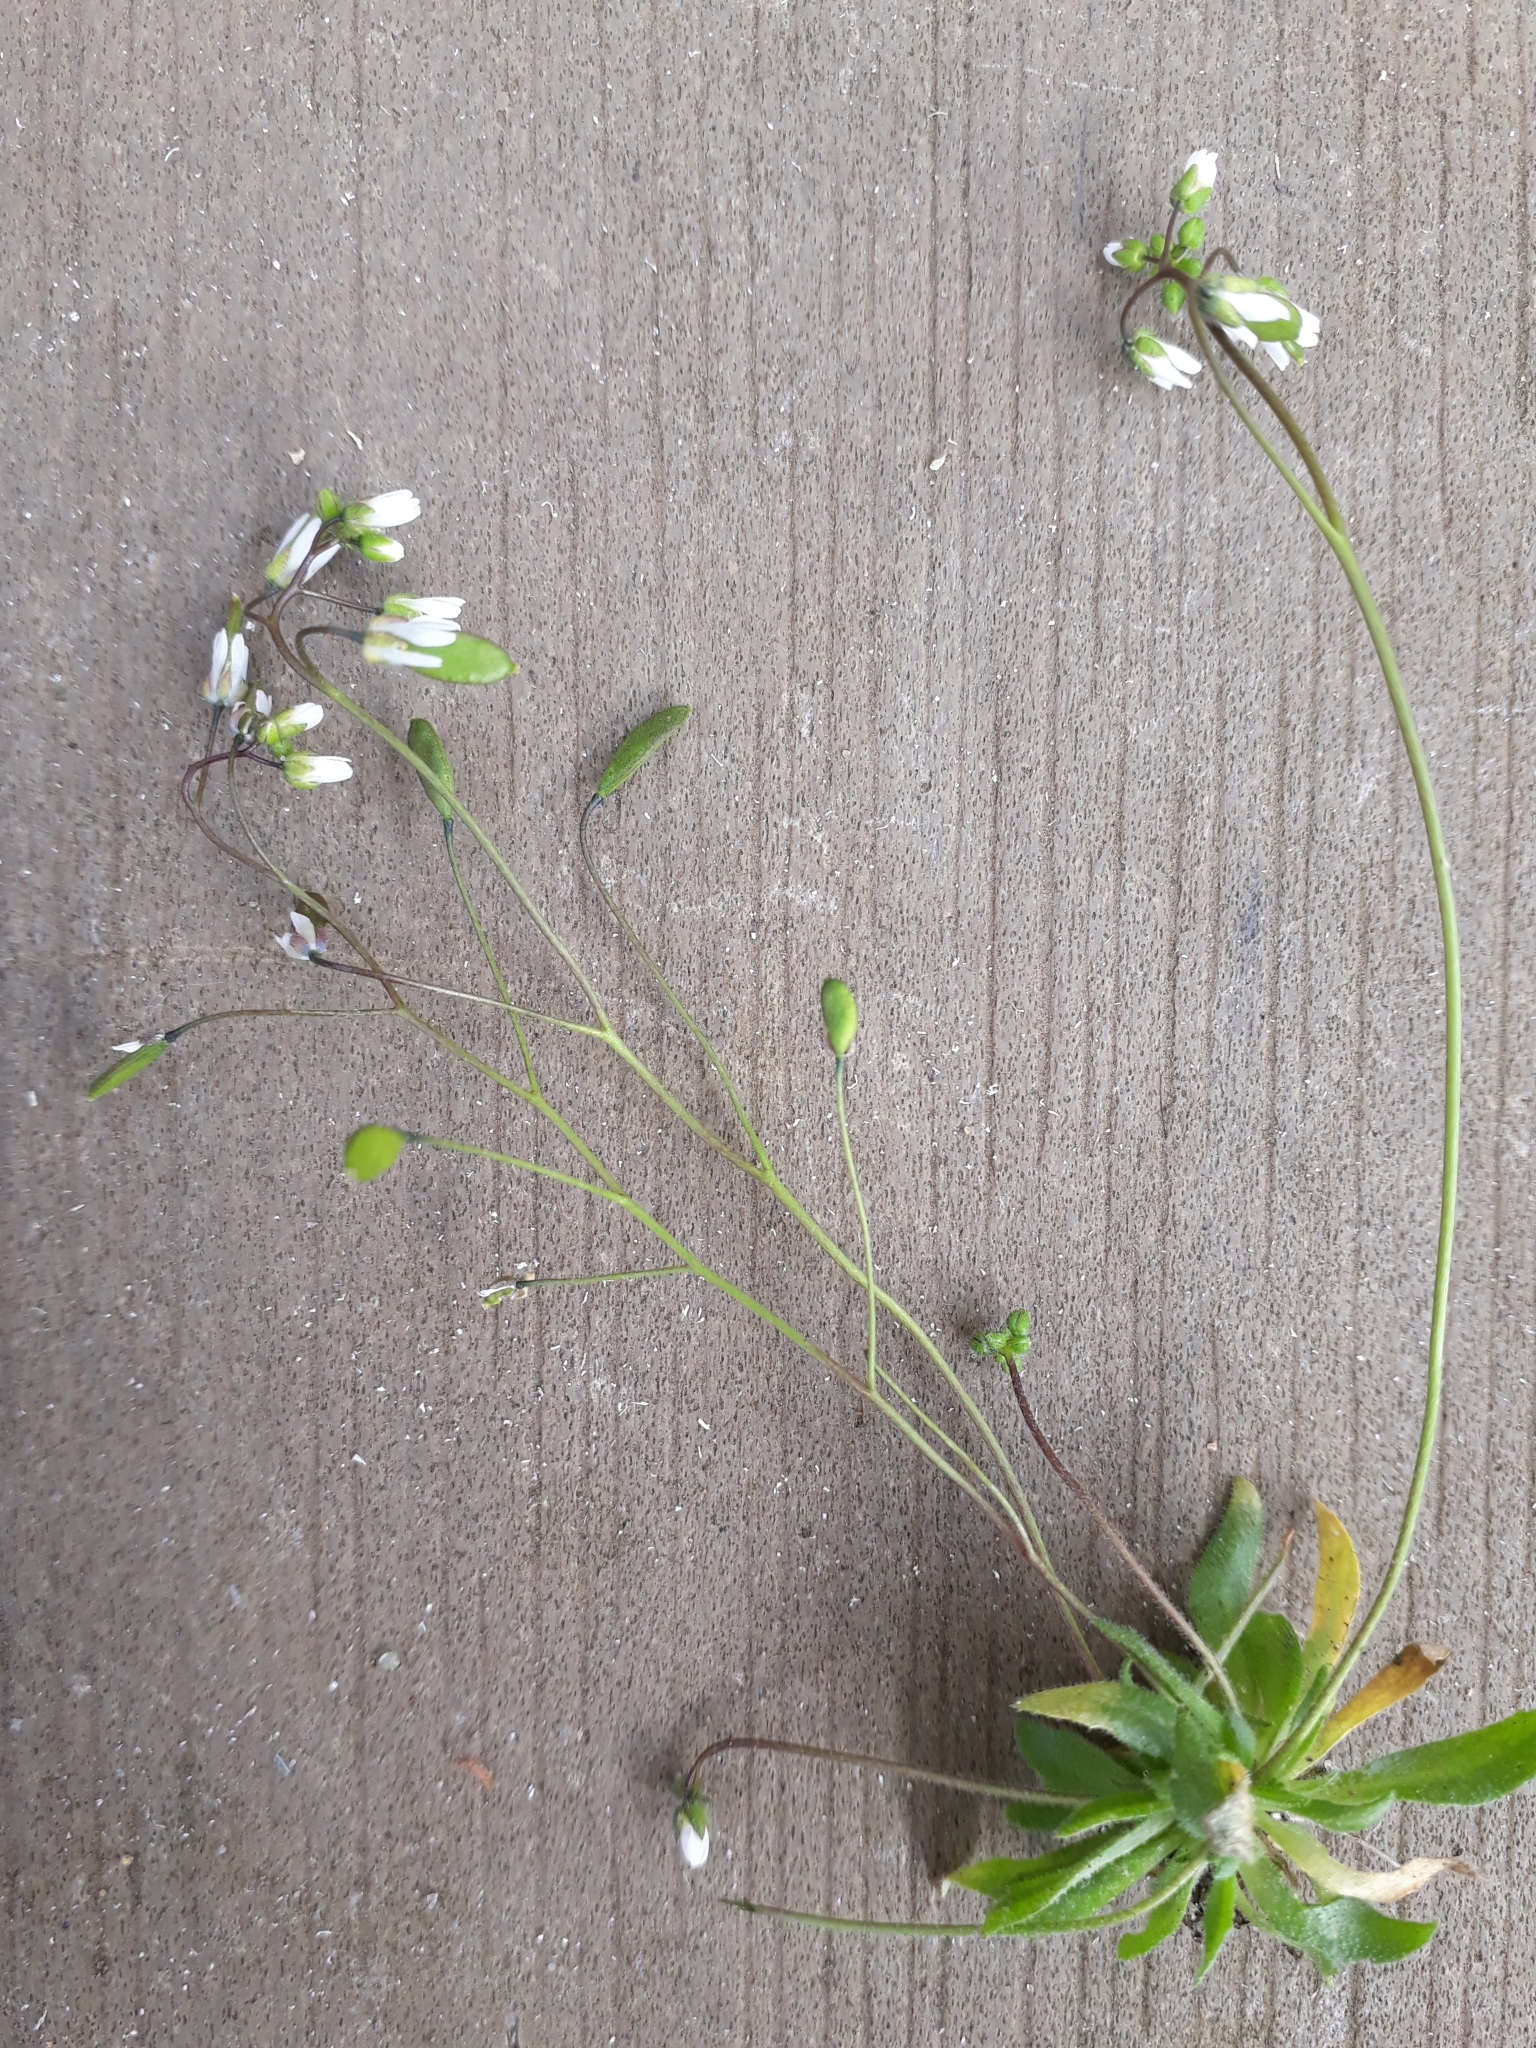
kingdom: Plantae
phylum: Tracheophyta
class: Magnoliopsida
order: Brassicales
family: Brassicaceae
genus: Draba
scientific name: Draba verna
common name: Spring draba
